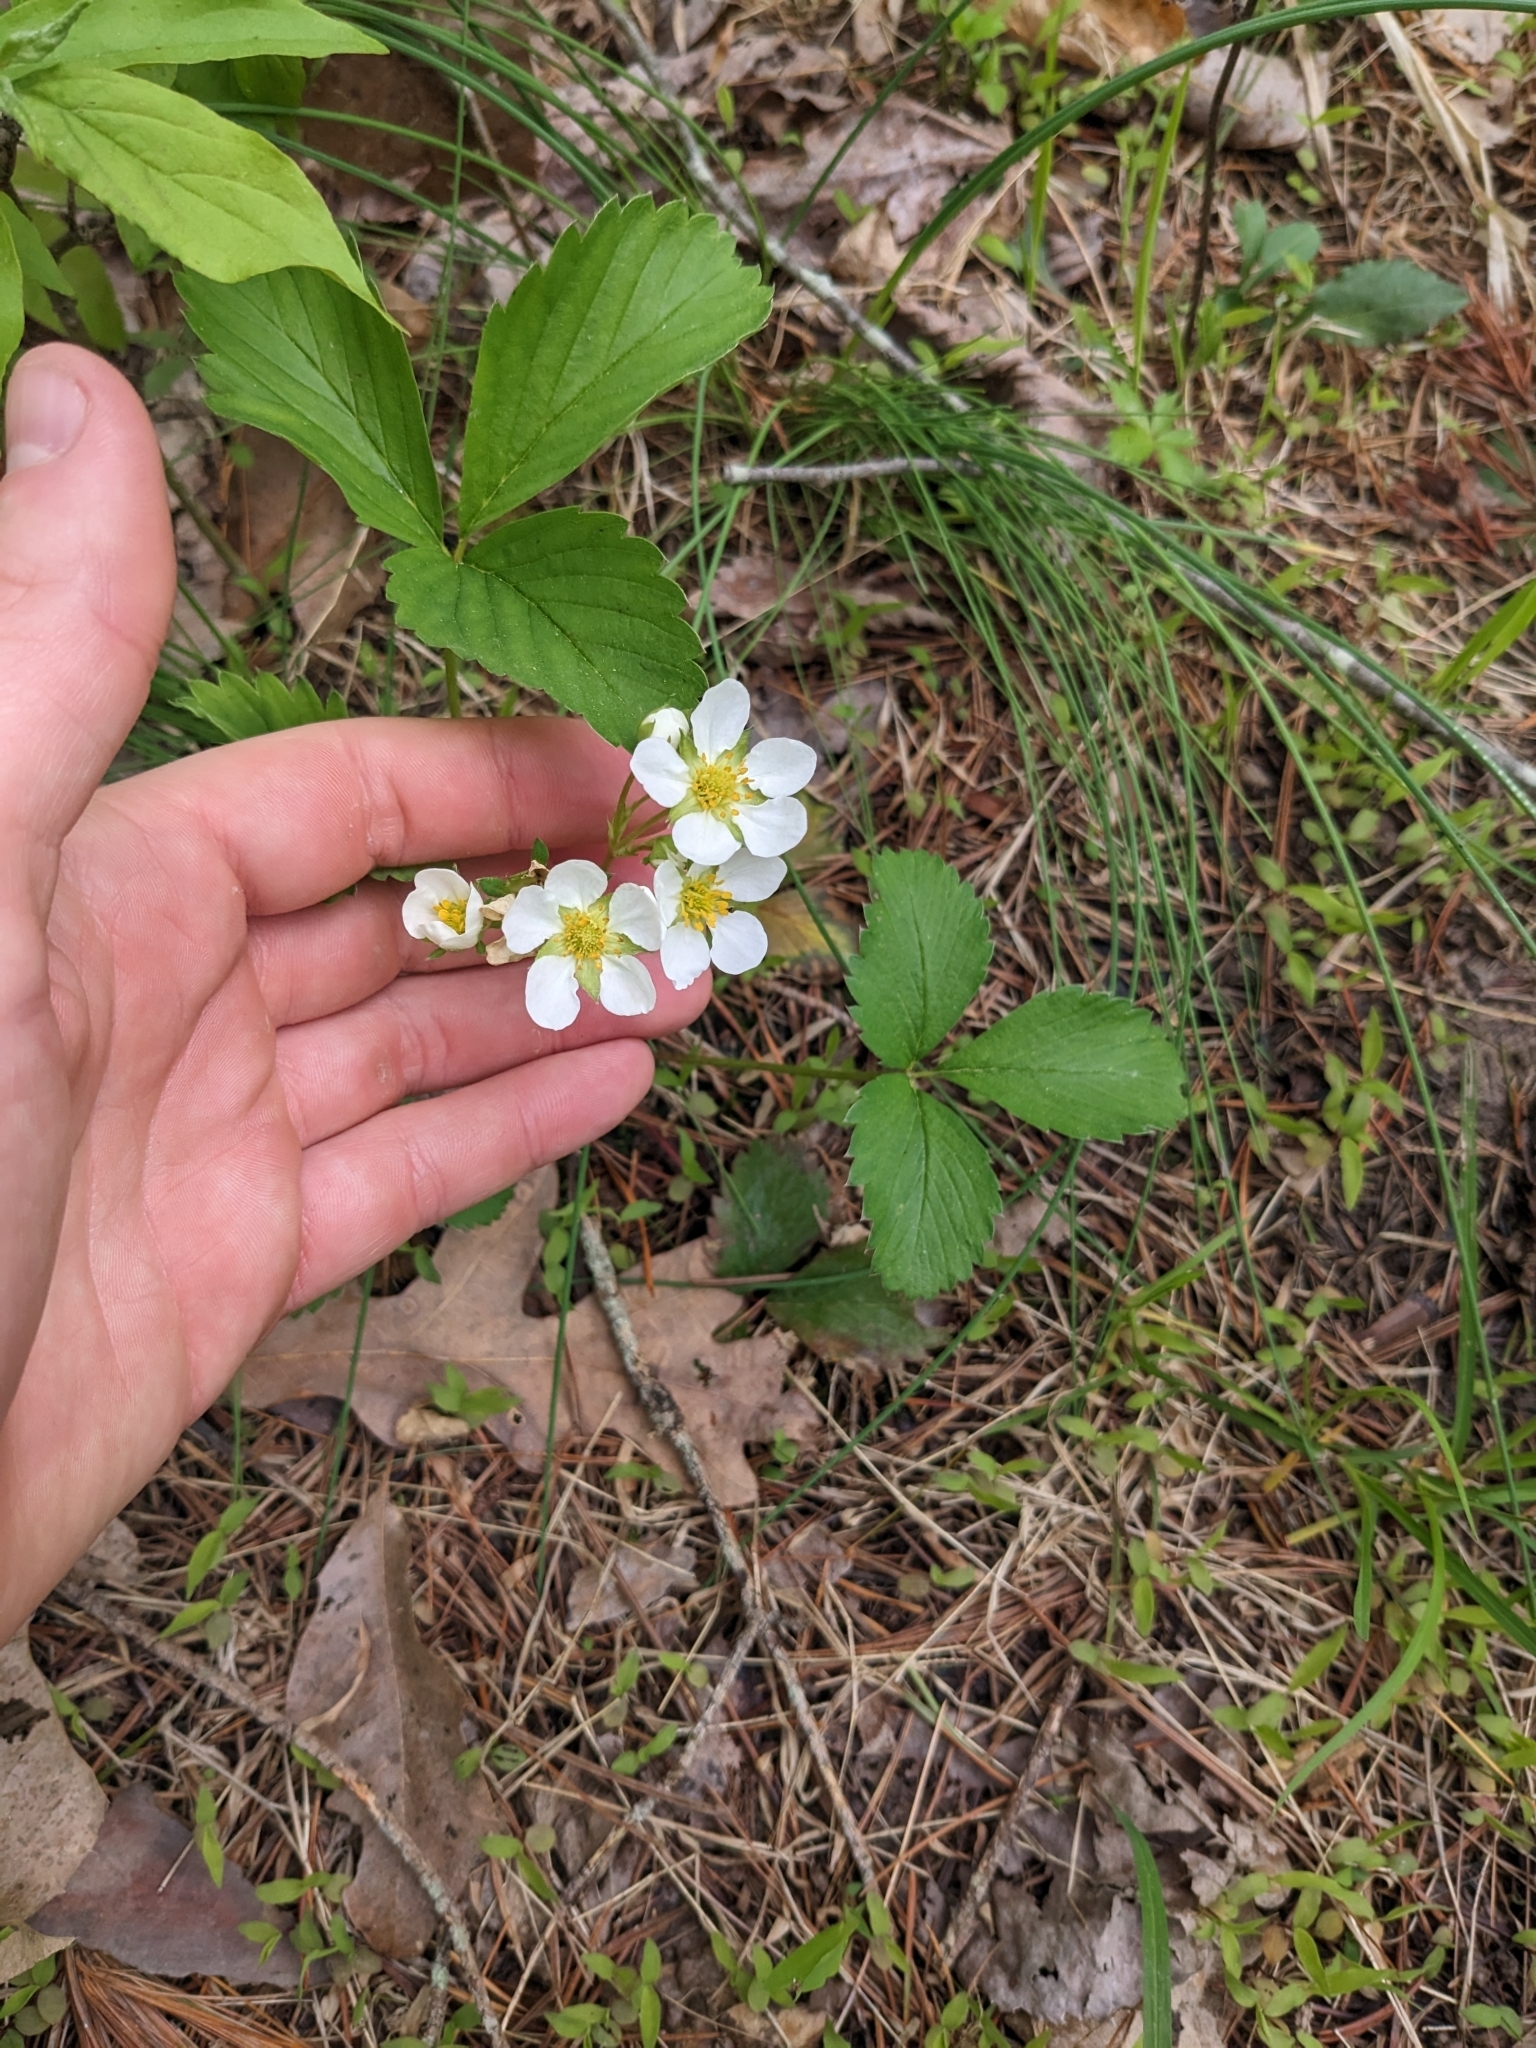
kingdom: Plantae
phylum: Tracheophyta
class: Magnoliopsida
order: Rosales
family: Rosaceae
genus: Fragaria
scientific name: Fragaria virginiana
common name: Thickleaved wild strawberry
